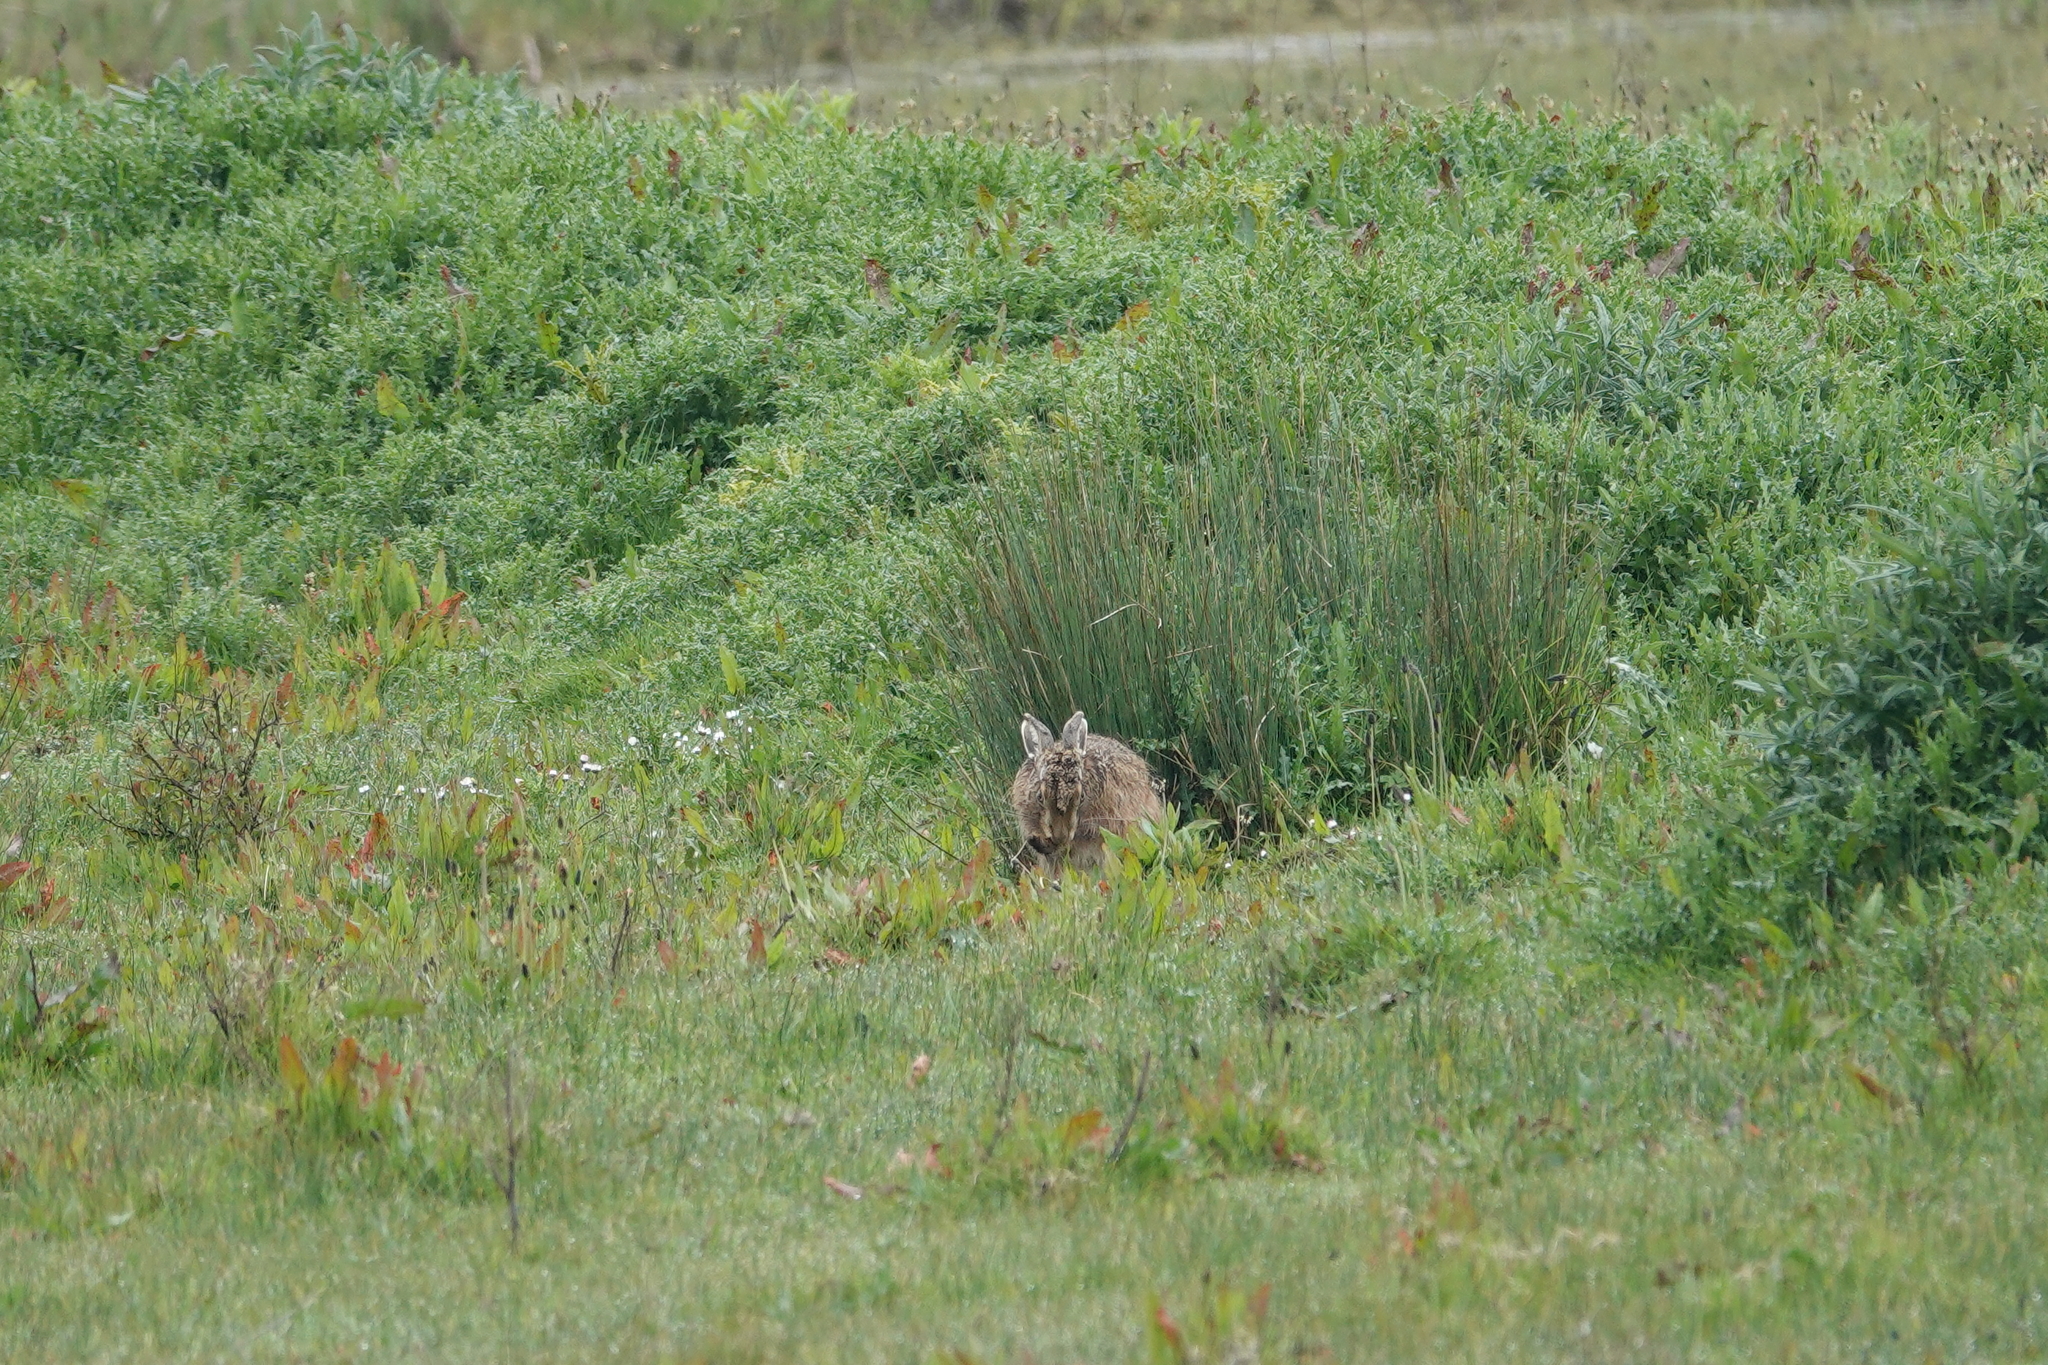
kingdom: Animalia
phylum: Chordata
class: Mammalia
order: Lagomorpha
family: Leporidae
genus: Lepus
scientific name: Lepus europaeus
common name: European hare
